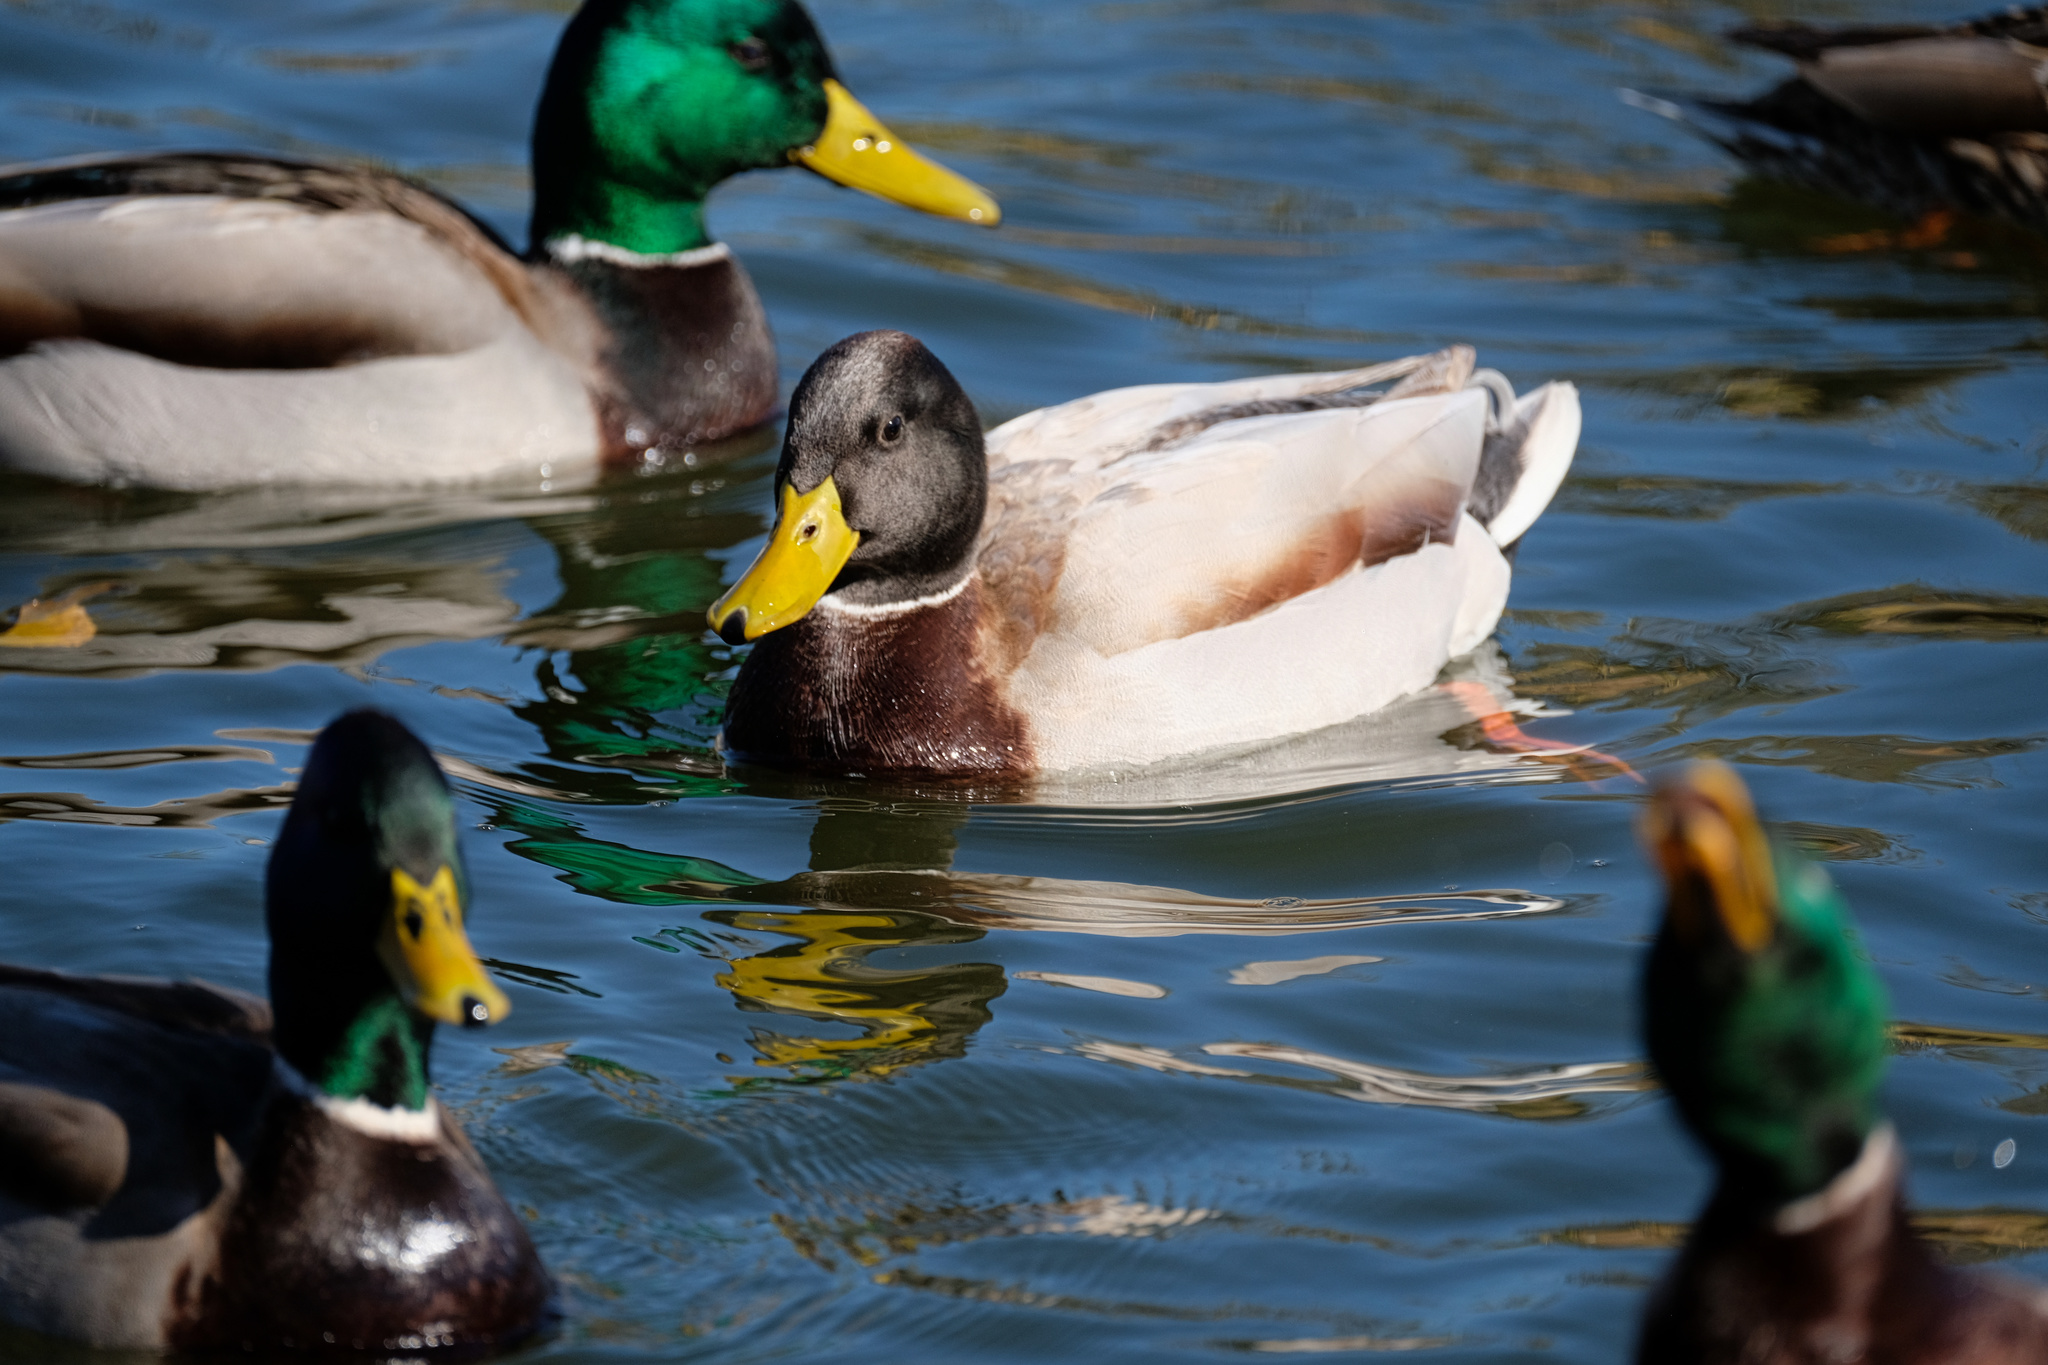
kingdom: Animalia
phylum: Chordata
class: Aves
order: Anseriformes
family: Anatidae
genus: Anas
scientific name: Anas platyrhynchos
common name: Mallard
